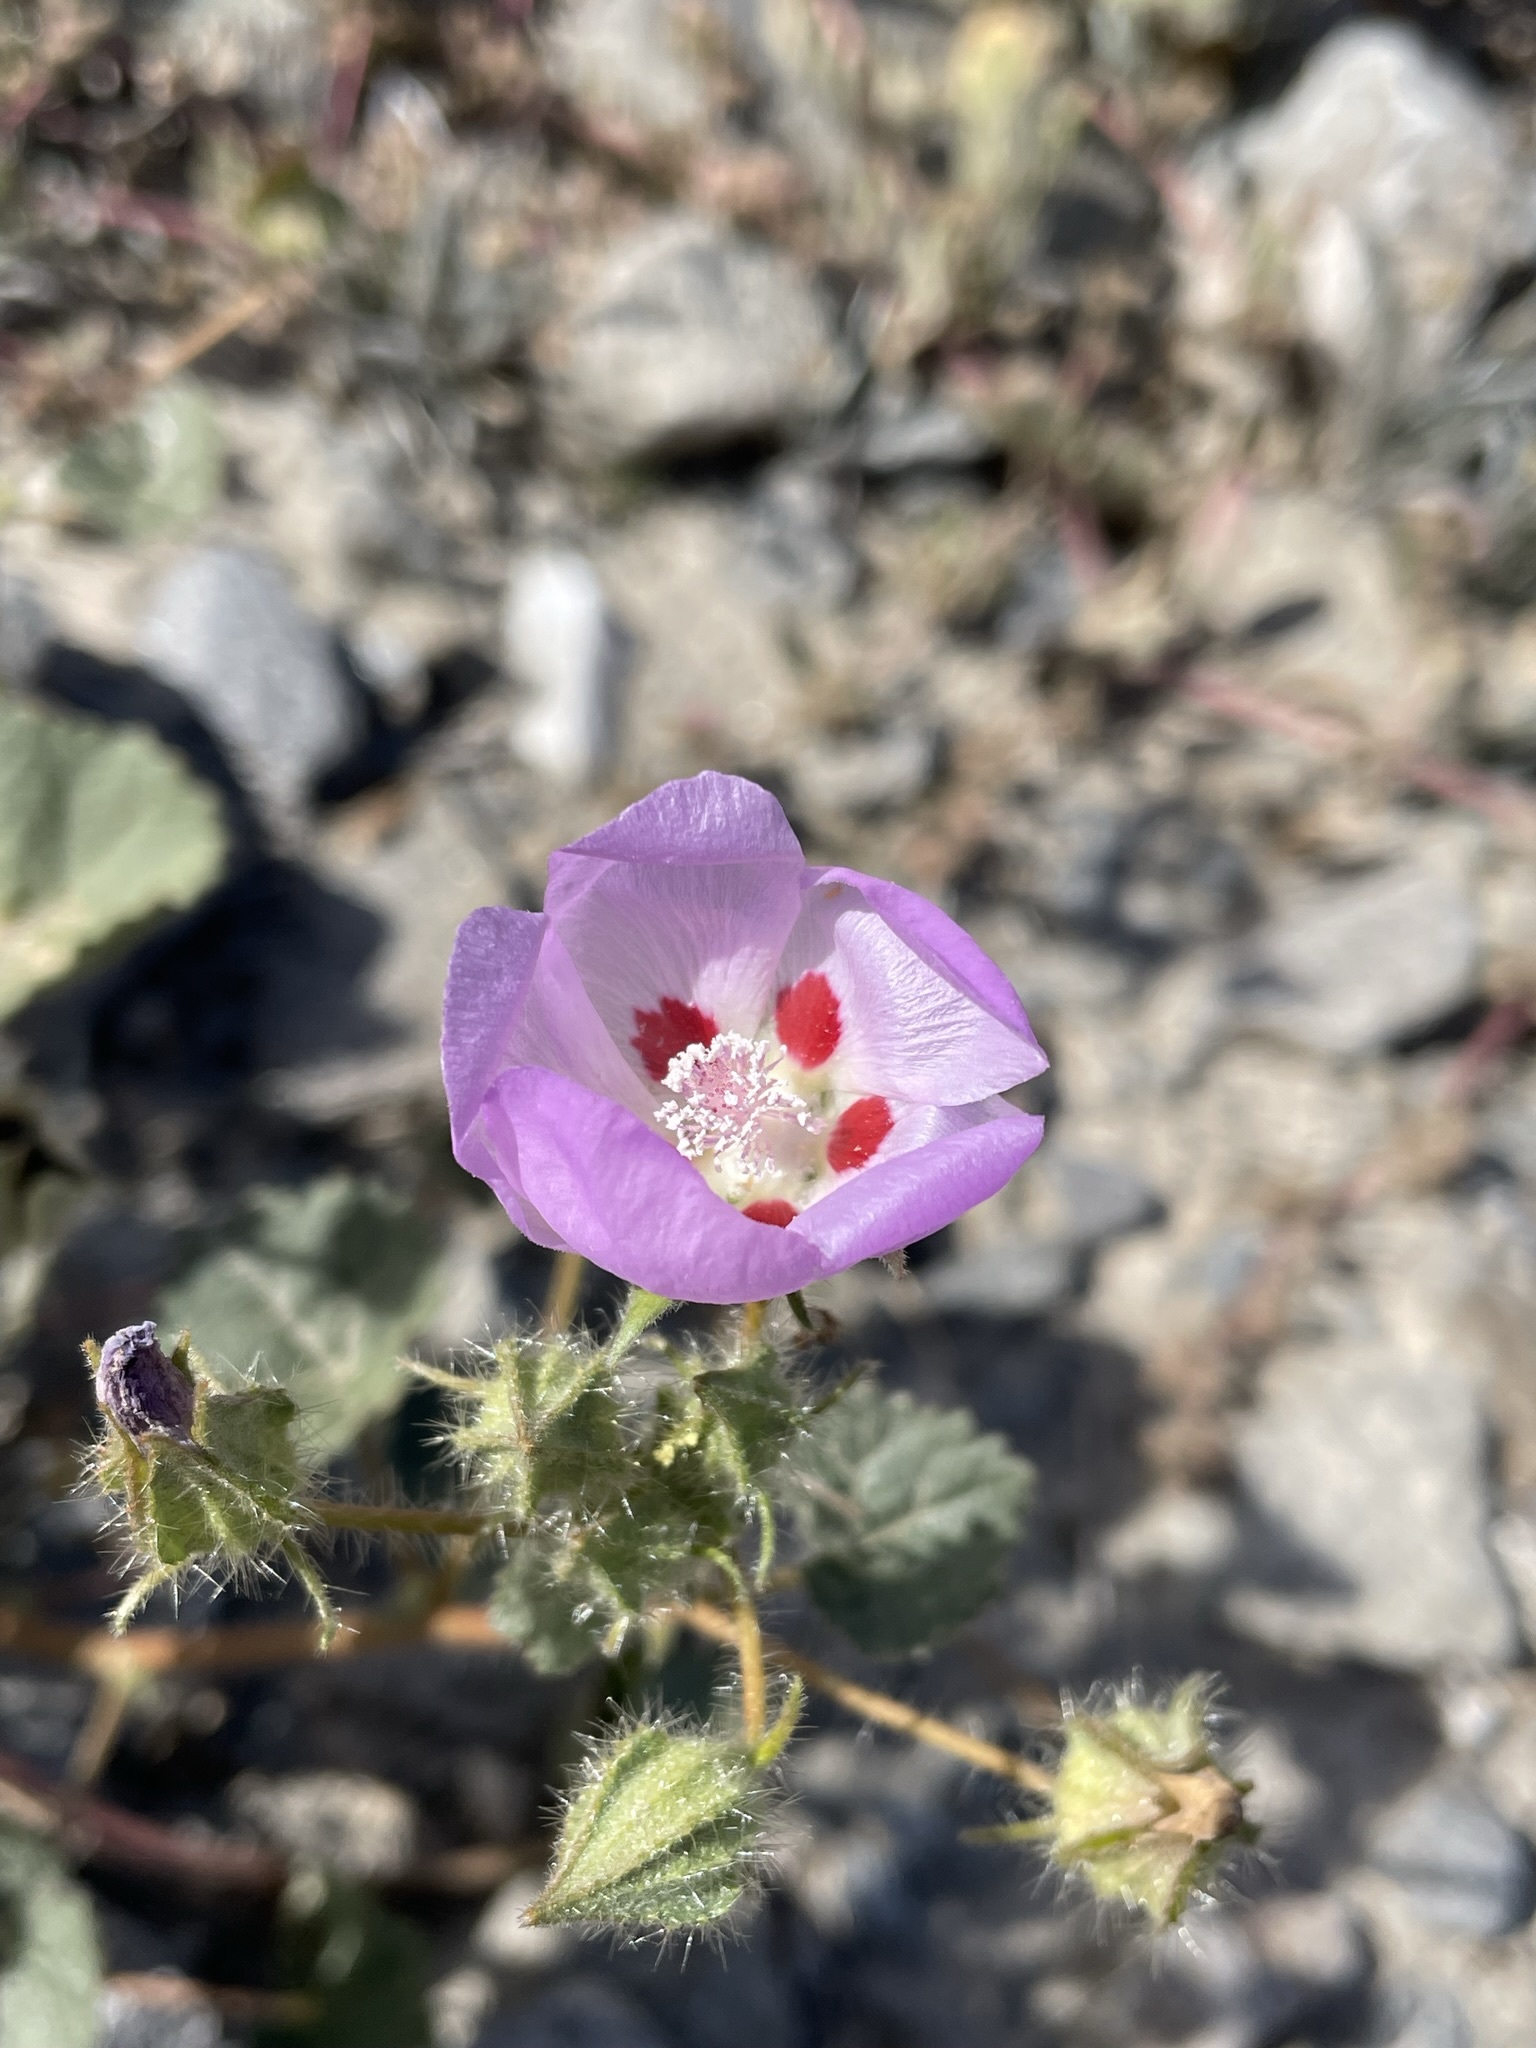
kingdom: Plantae
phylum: Tracheophyta
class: Magnoliopsida
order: Malvales
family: Malvaceae
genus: Eremalche
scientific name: Eremalche rotundifolia
